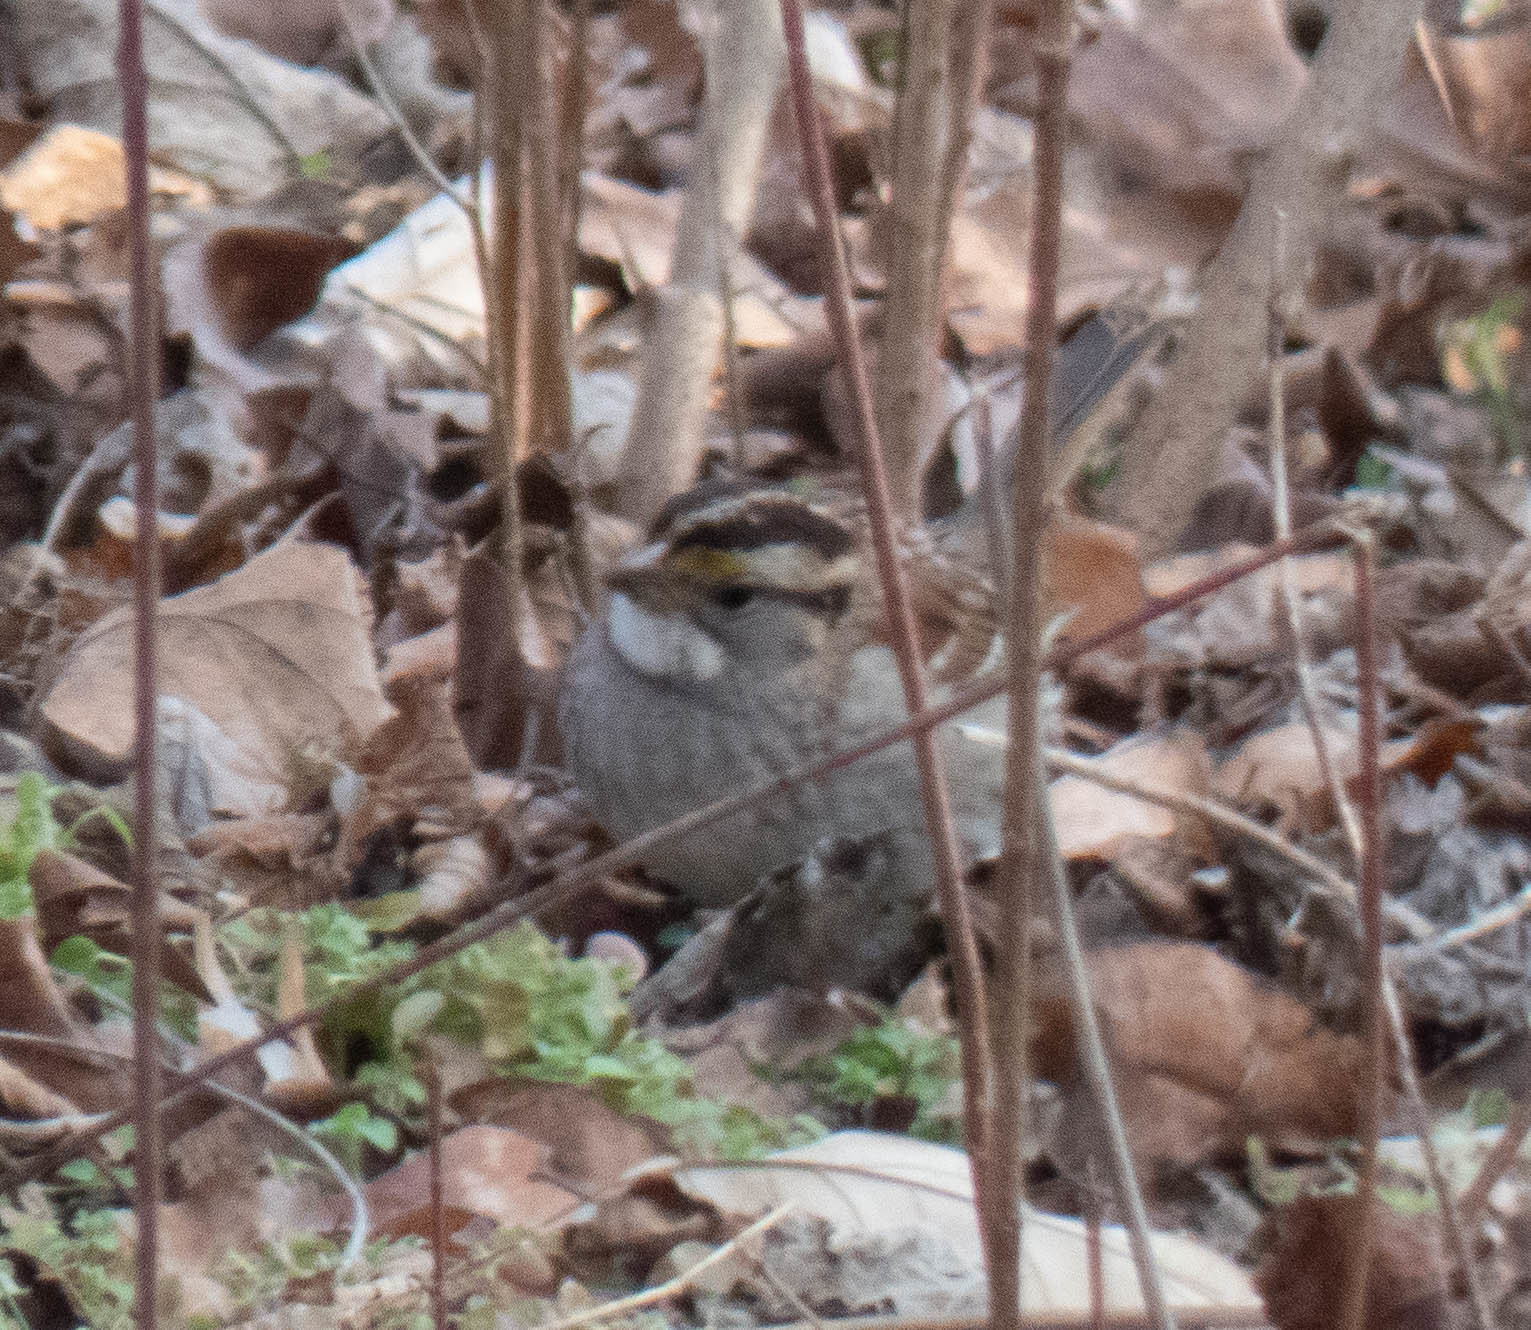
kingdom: Animalia
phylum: Chordata
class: Aves
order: Passeriformes
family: Passerellidae
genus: Zonotrichia
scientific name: Zonotrichia albicollis
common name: White-throated sparrow
